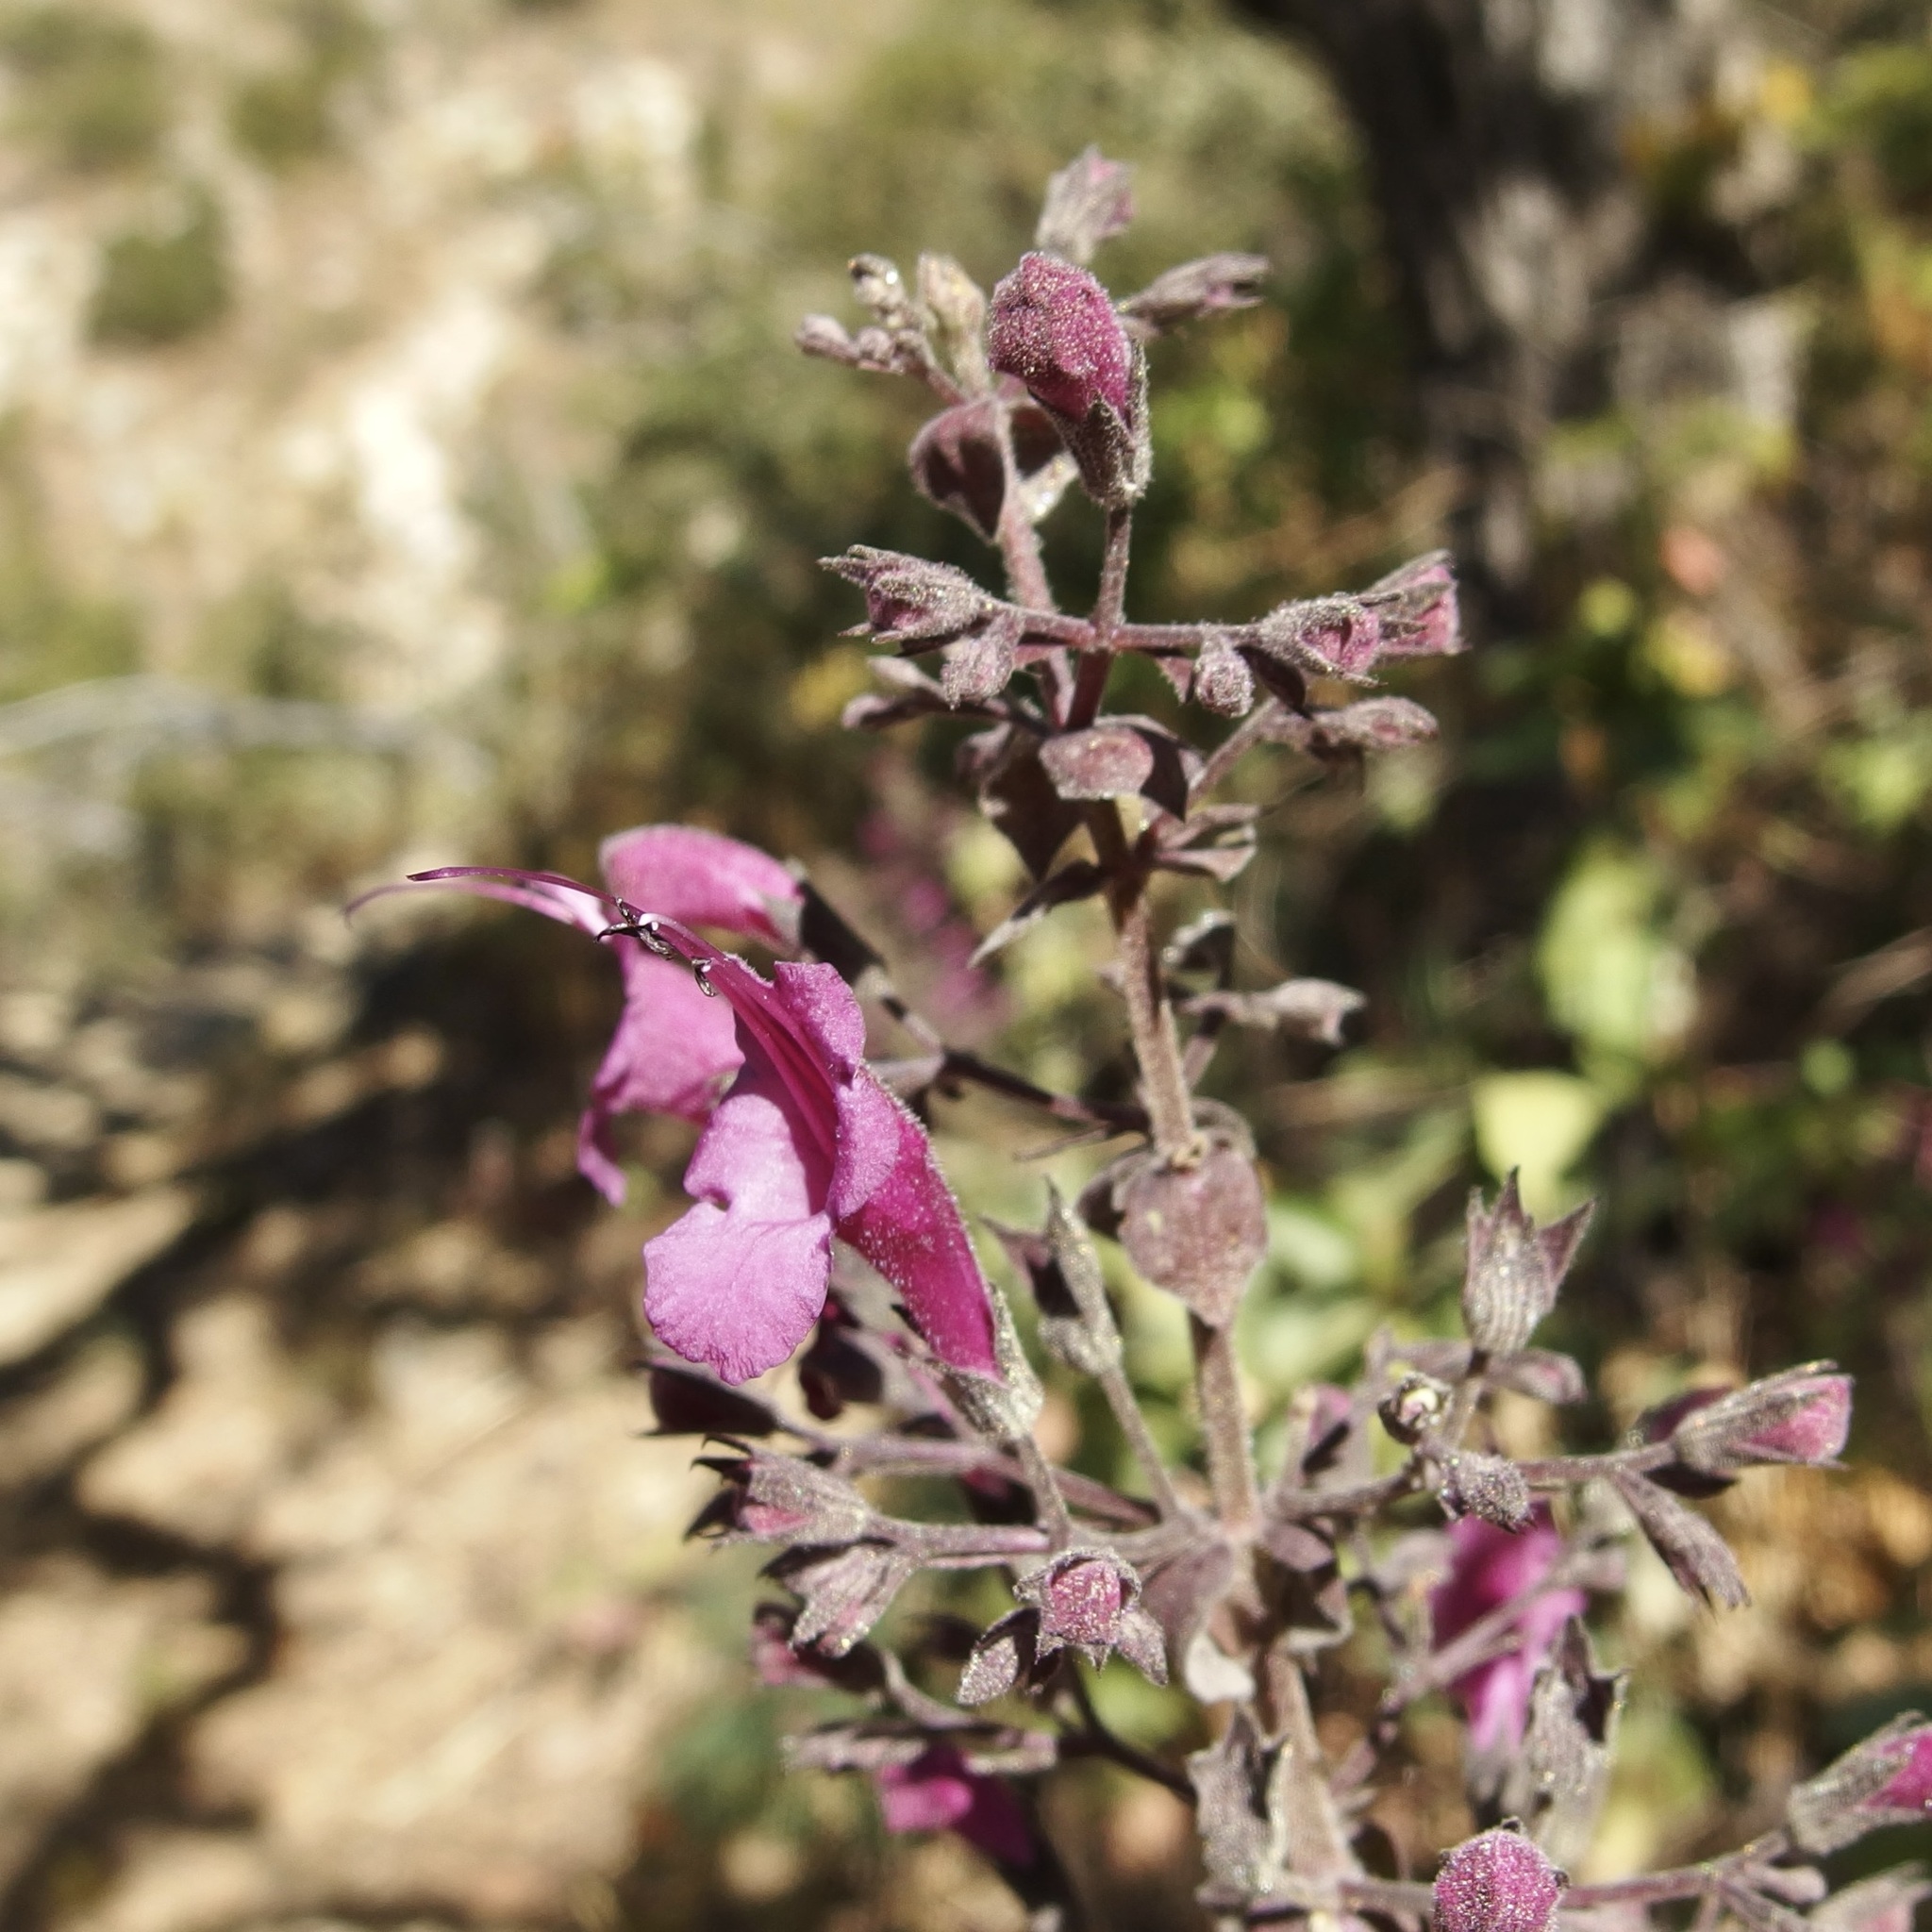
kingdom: Plantae
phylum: Tracheophyta
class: Magnoliopsida
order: Lamiales
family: Lamiaceae
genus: Lepechinia
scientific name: Lepechinia hastata
